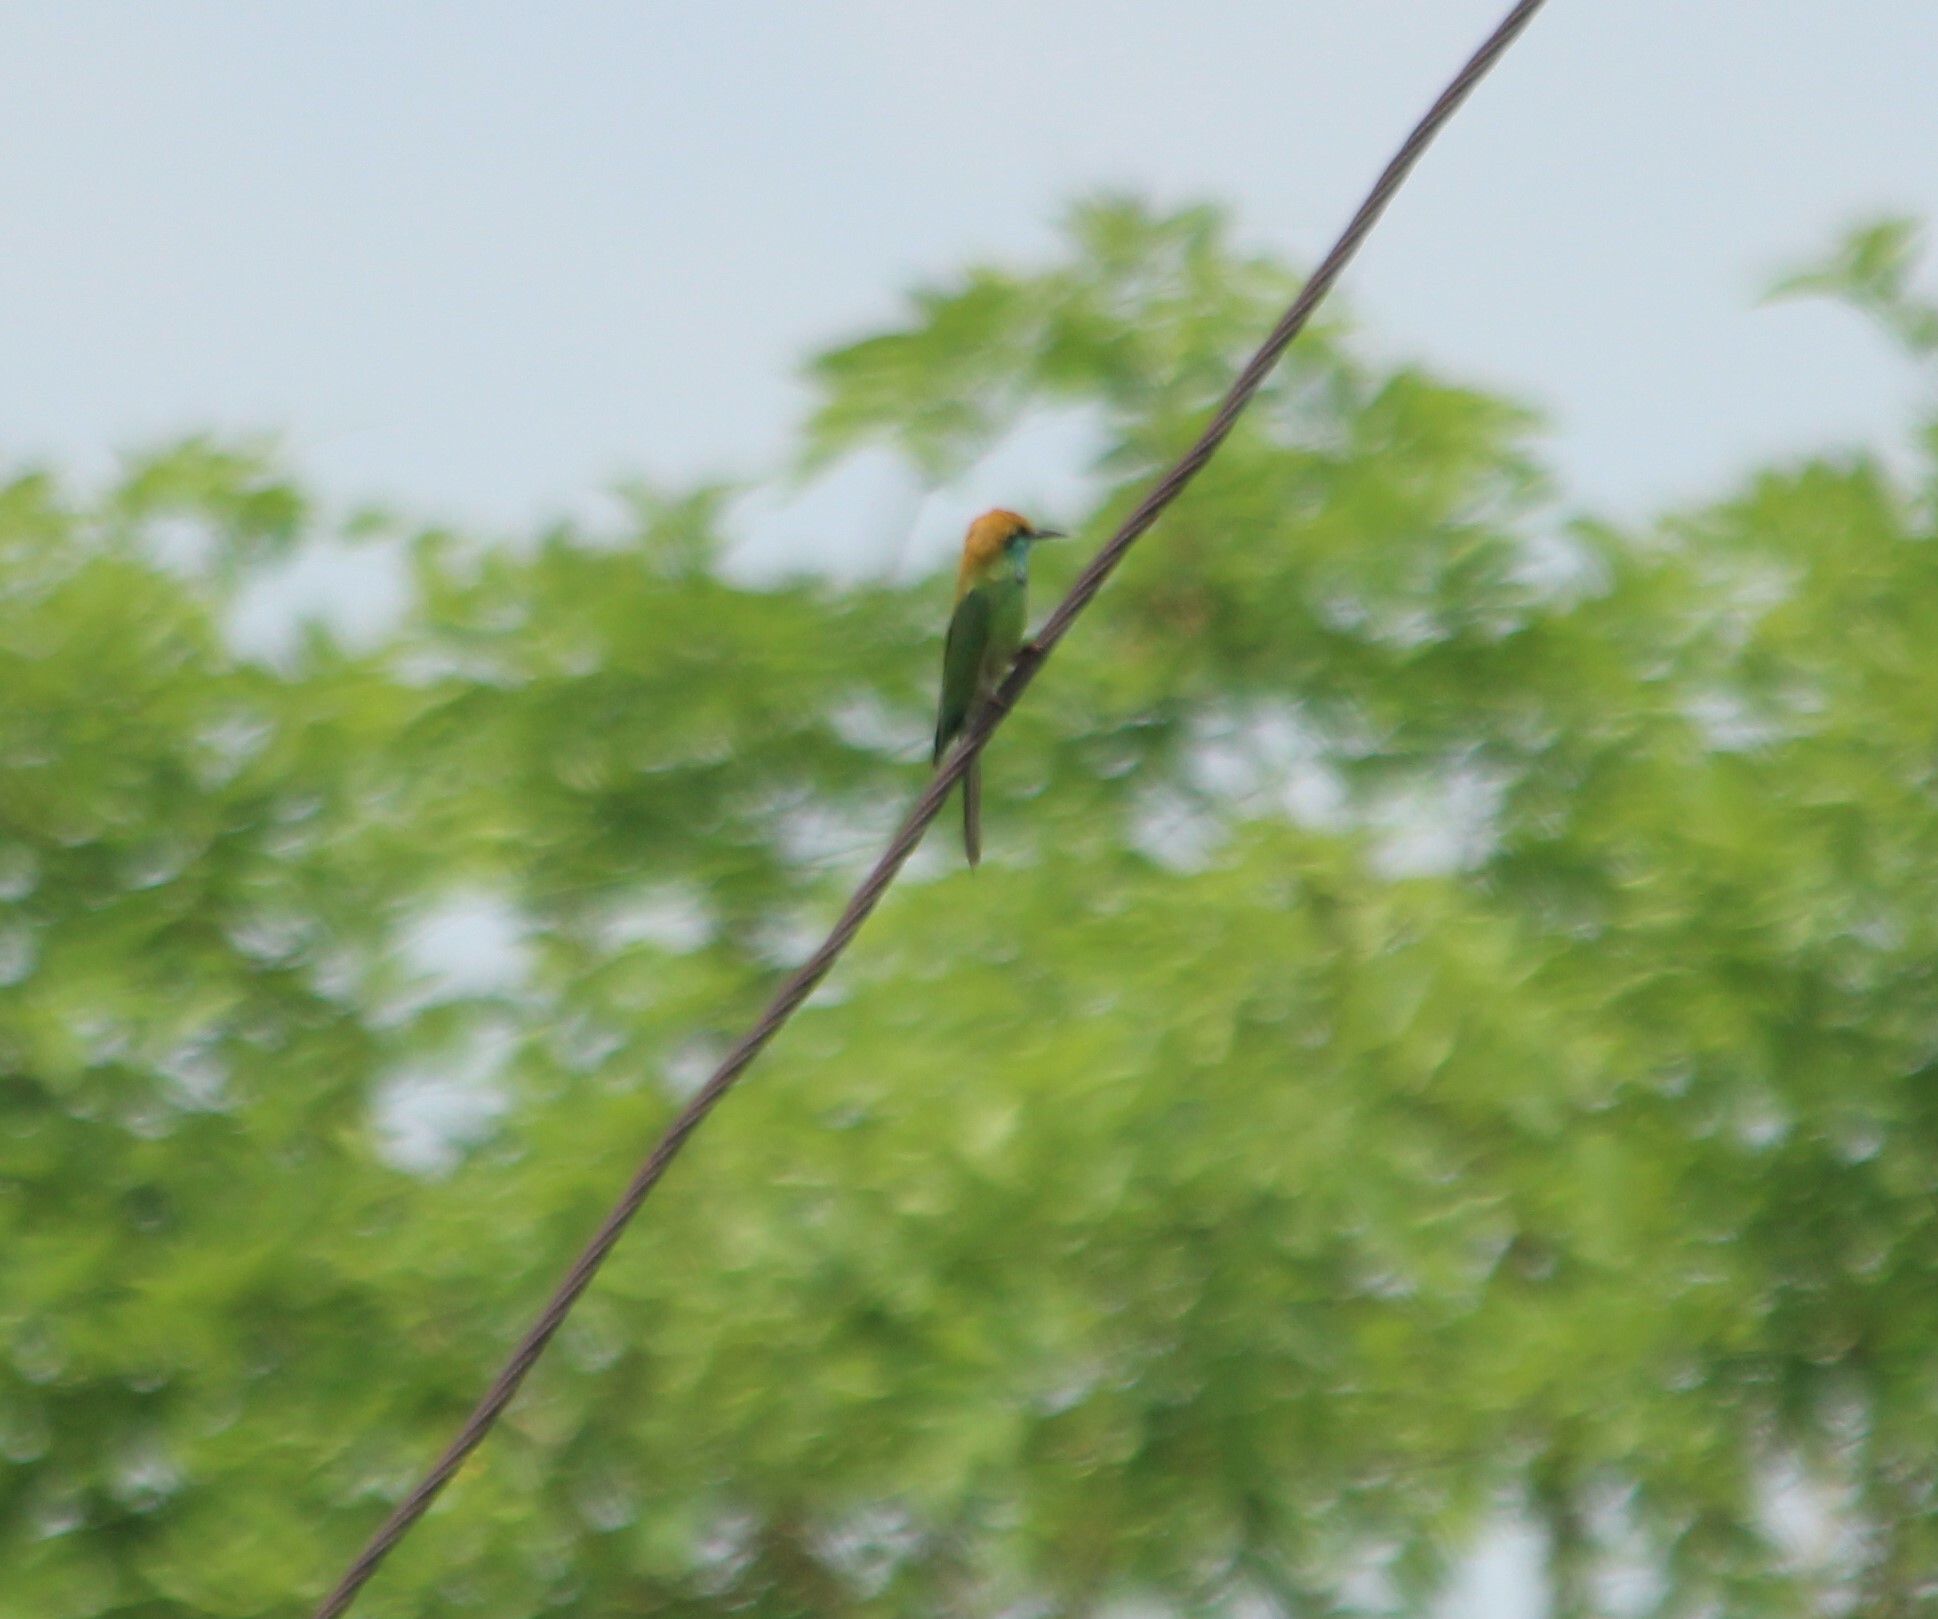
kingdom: Animalia
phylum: Chordata
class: Aves
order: Coraciiformes
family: Meropidae
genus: Merops
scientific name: Merops orientalis
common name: Green bee-eater
